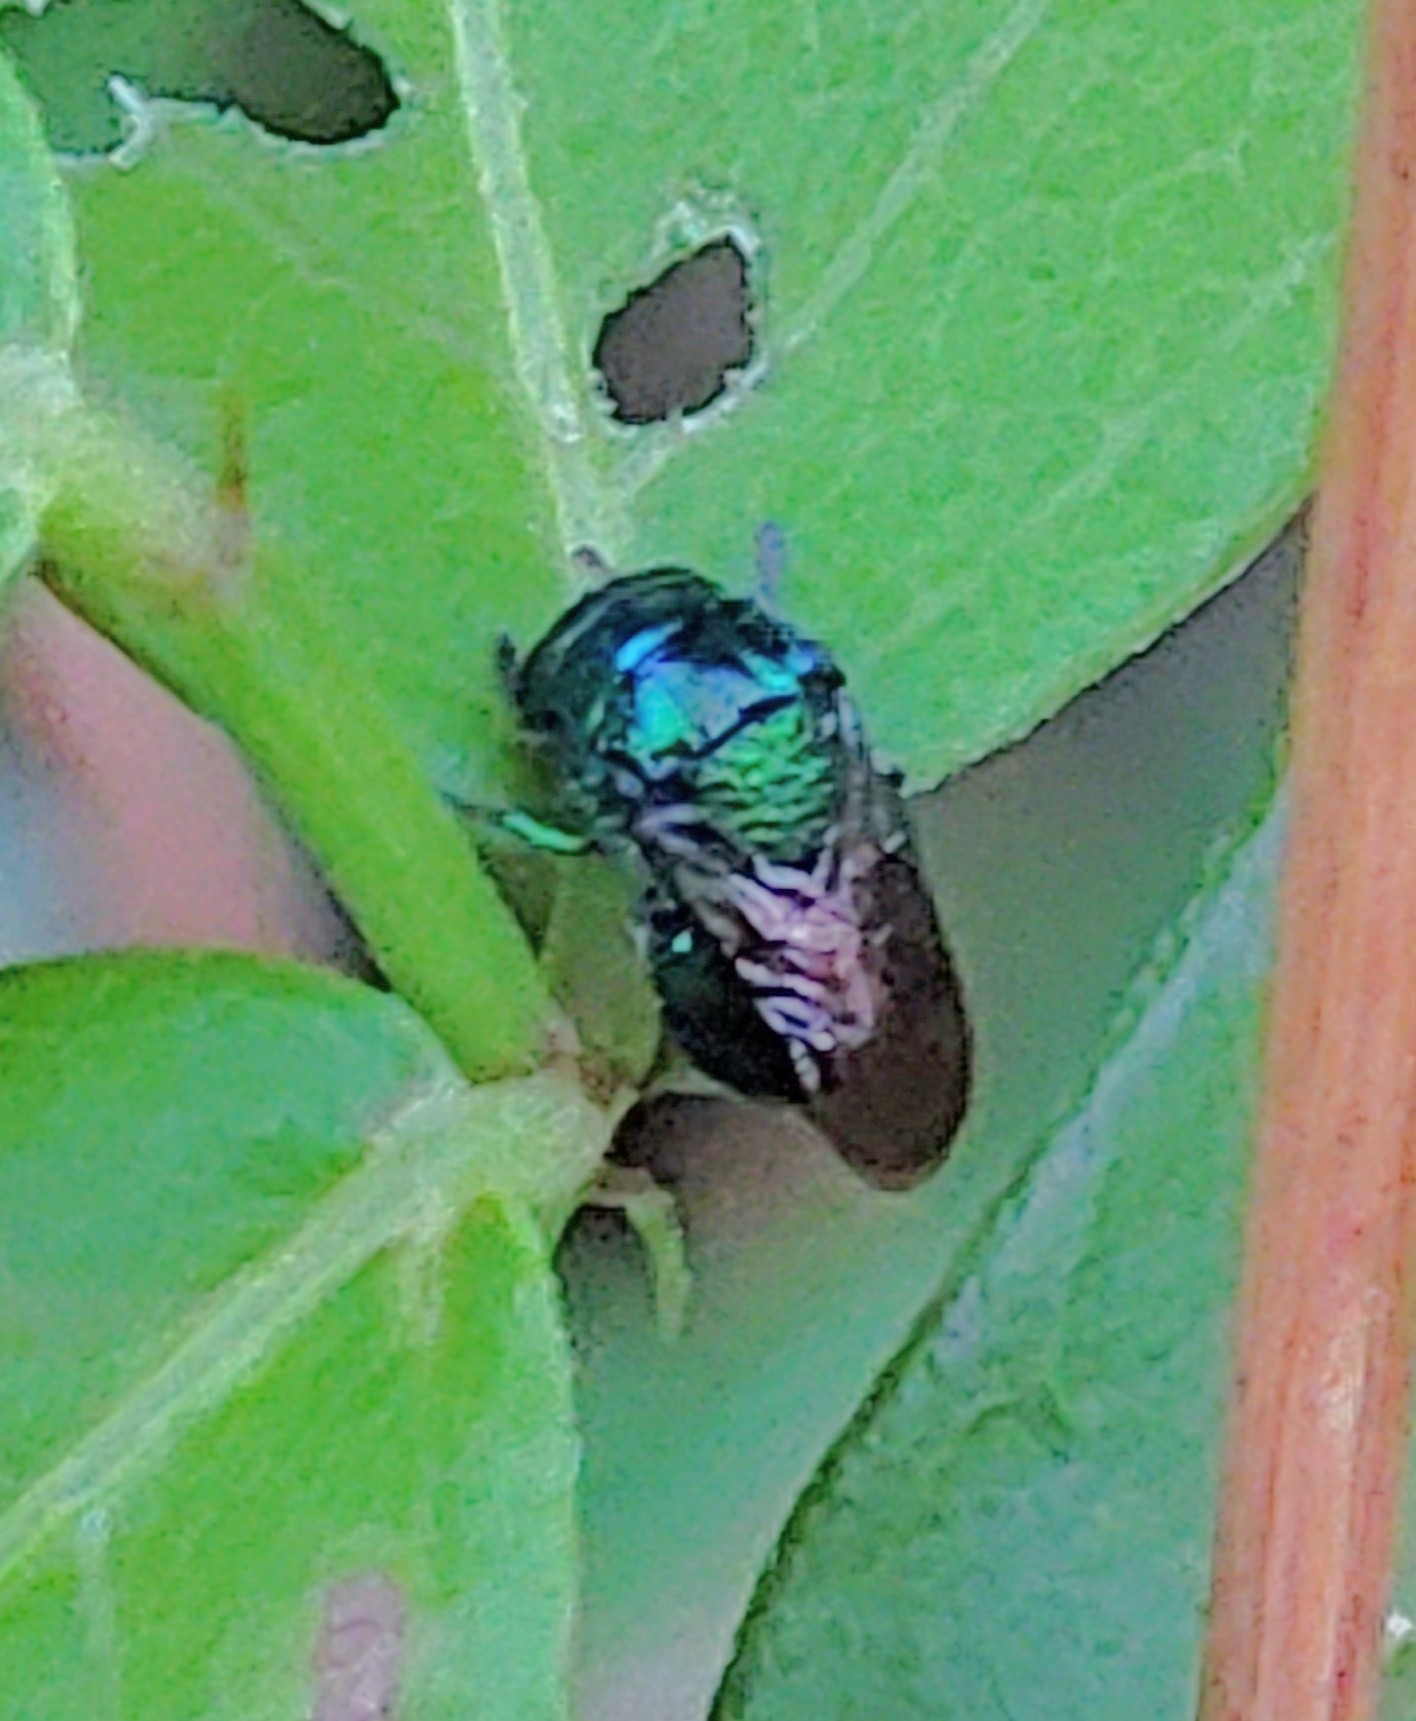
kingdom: Animalia
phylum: Arthropoda
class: Insecta
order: Hymenoptera
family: Chrysididae
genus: Muesebeckidium
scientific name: Muesebeckidium
